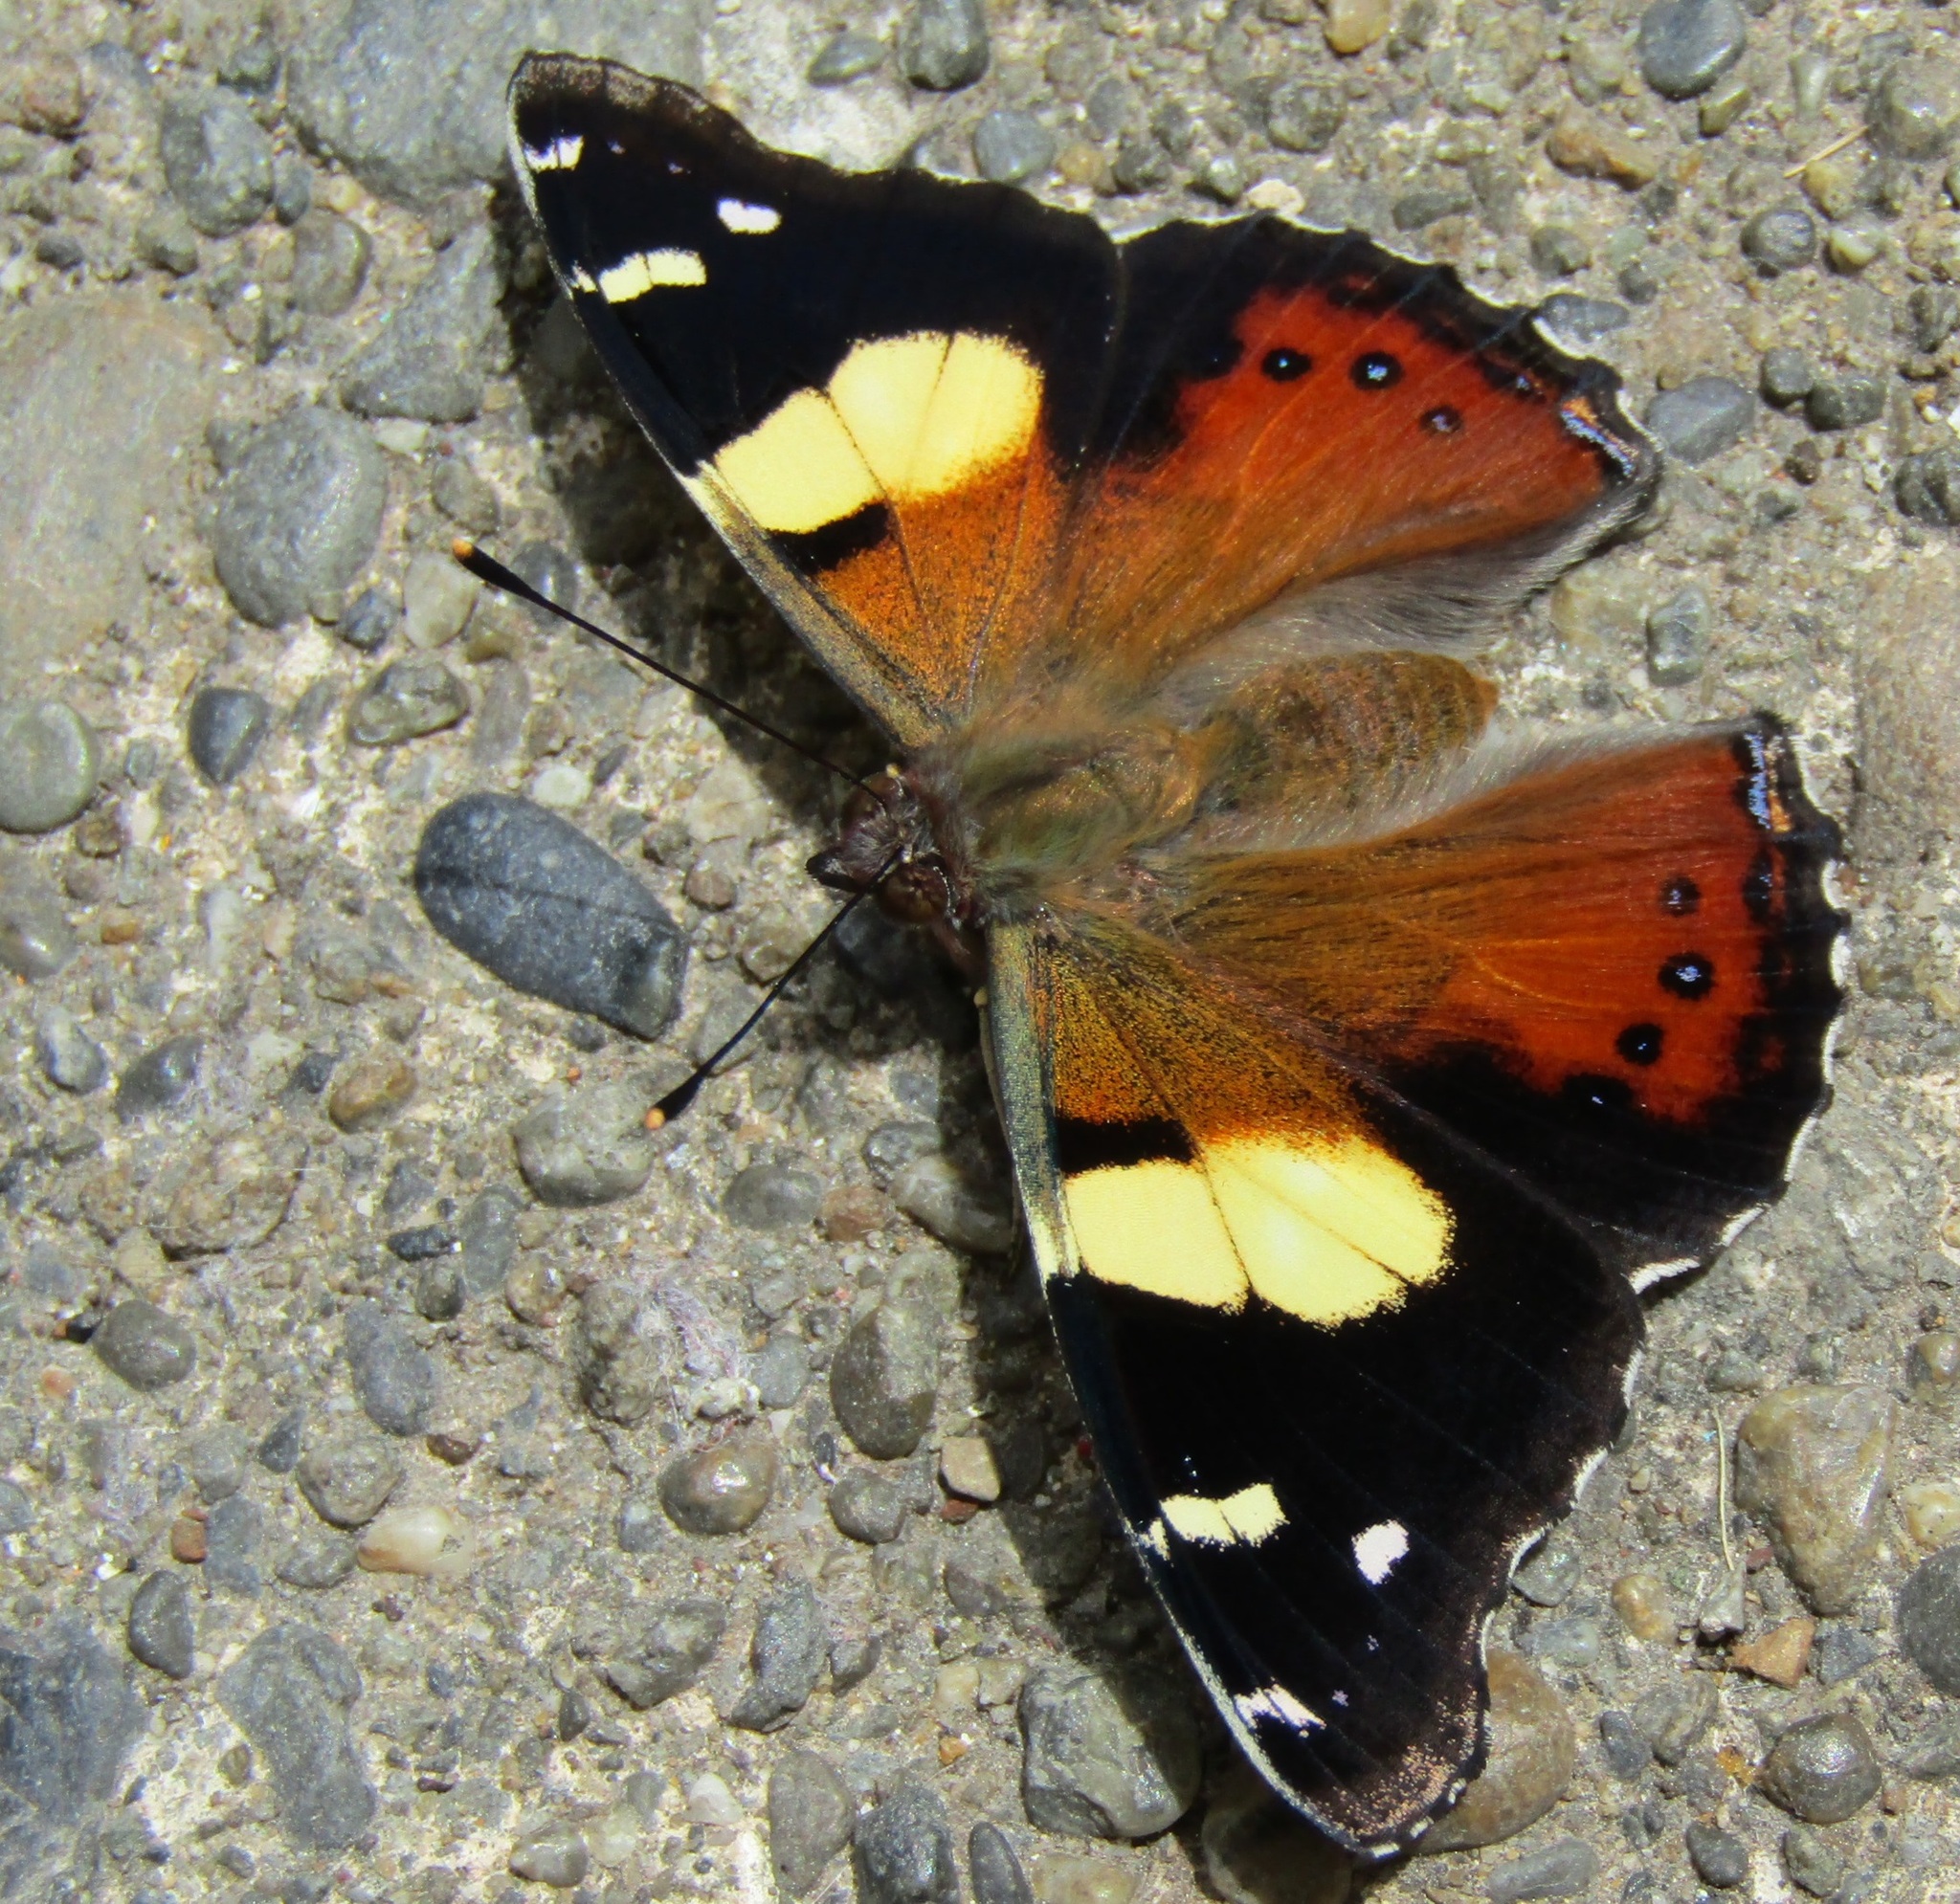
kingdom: Animalia
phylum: Arthropoda
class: Insecta
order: Lepidoptera
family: Nymphalidae
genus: Vanessa
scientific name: Vanessa itea
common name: Yellow admiral
